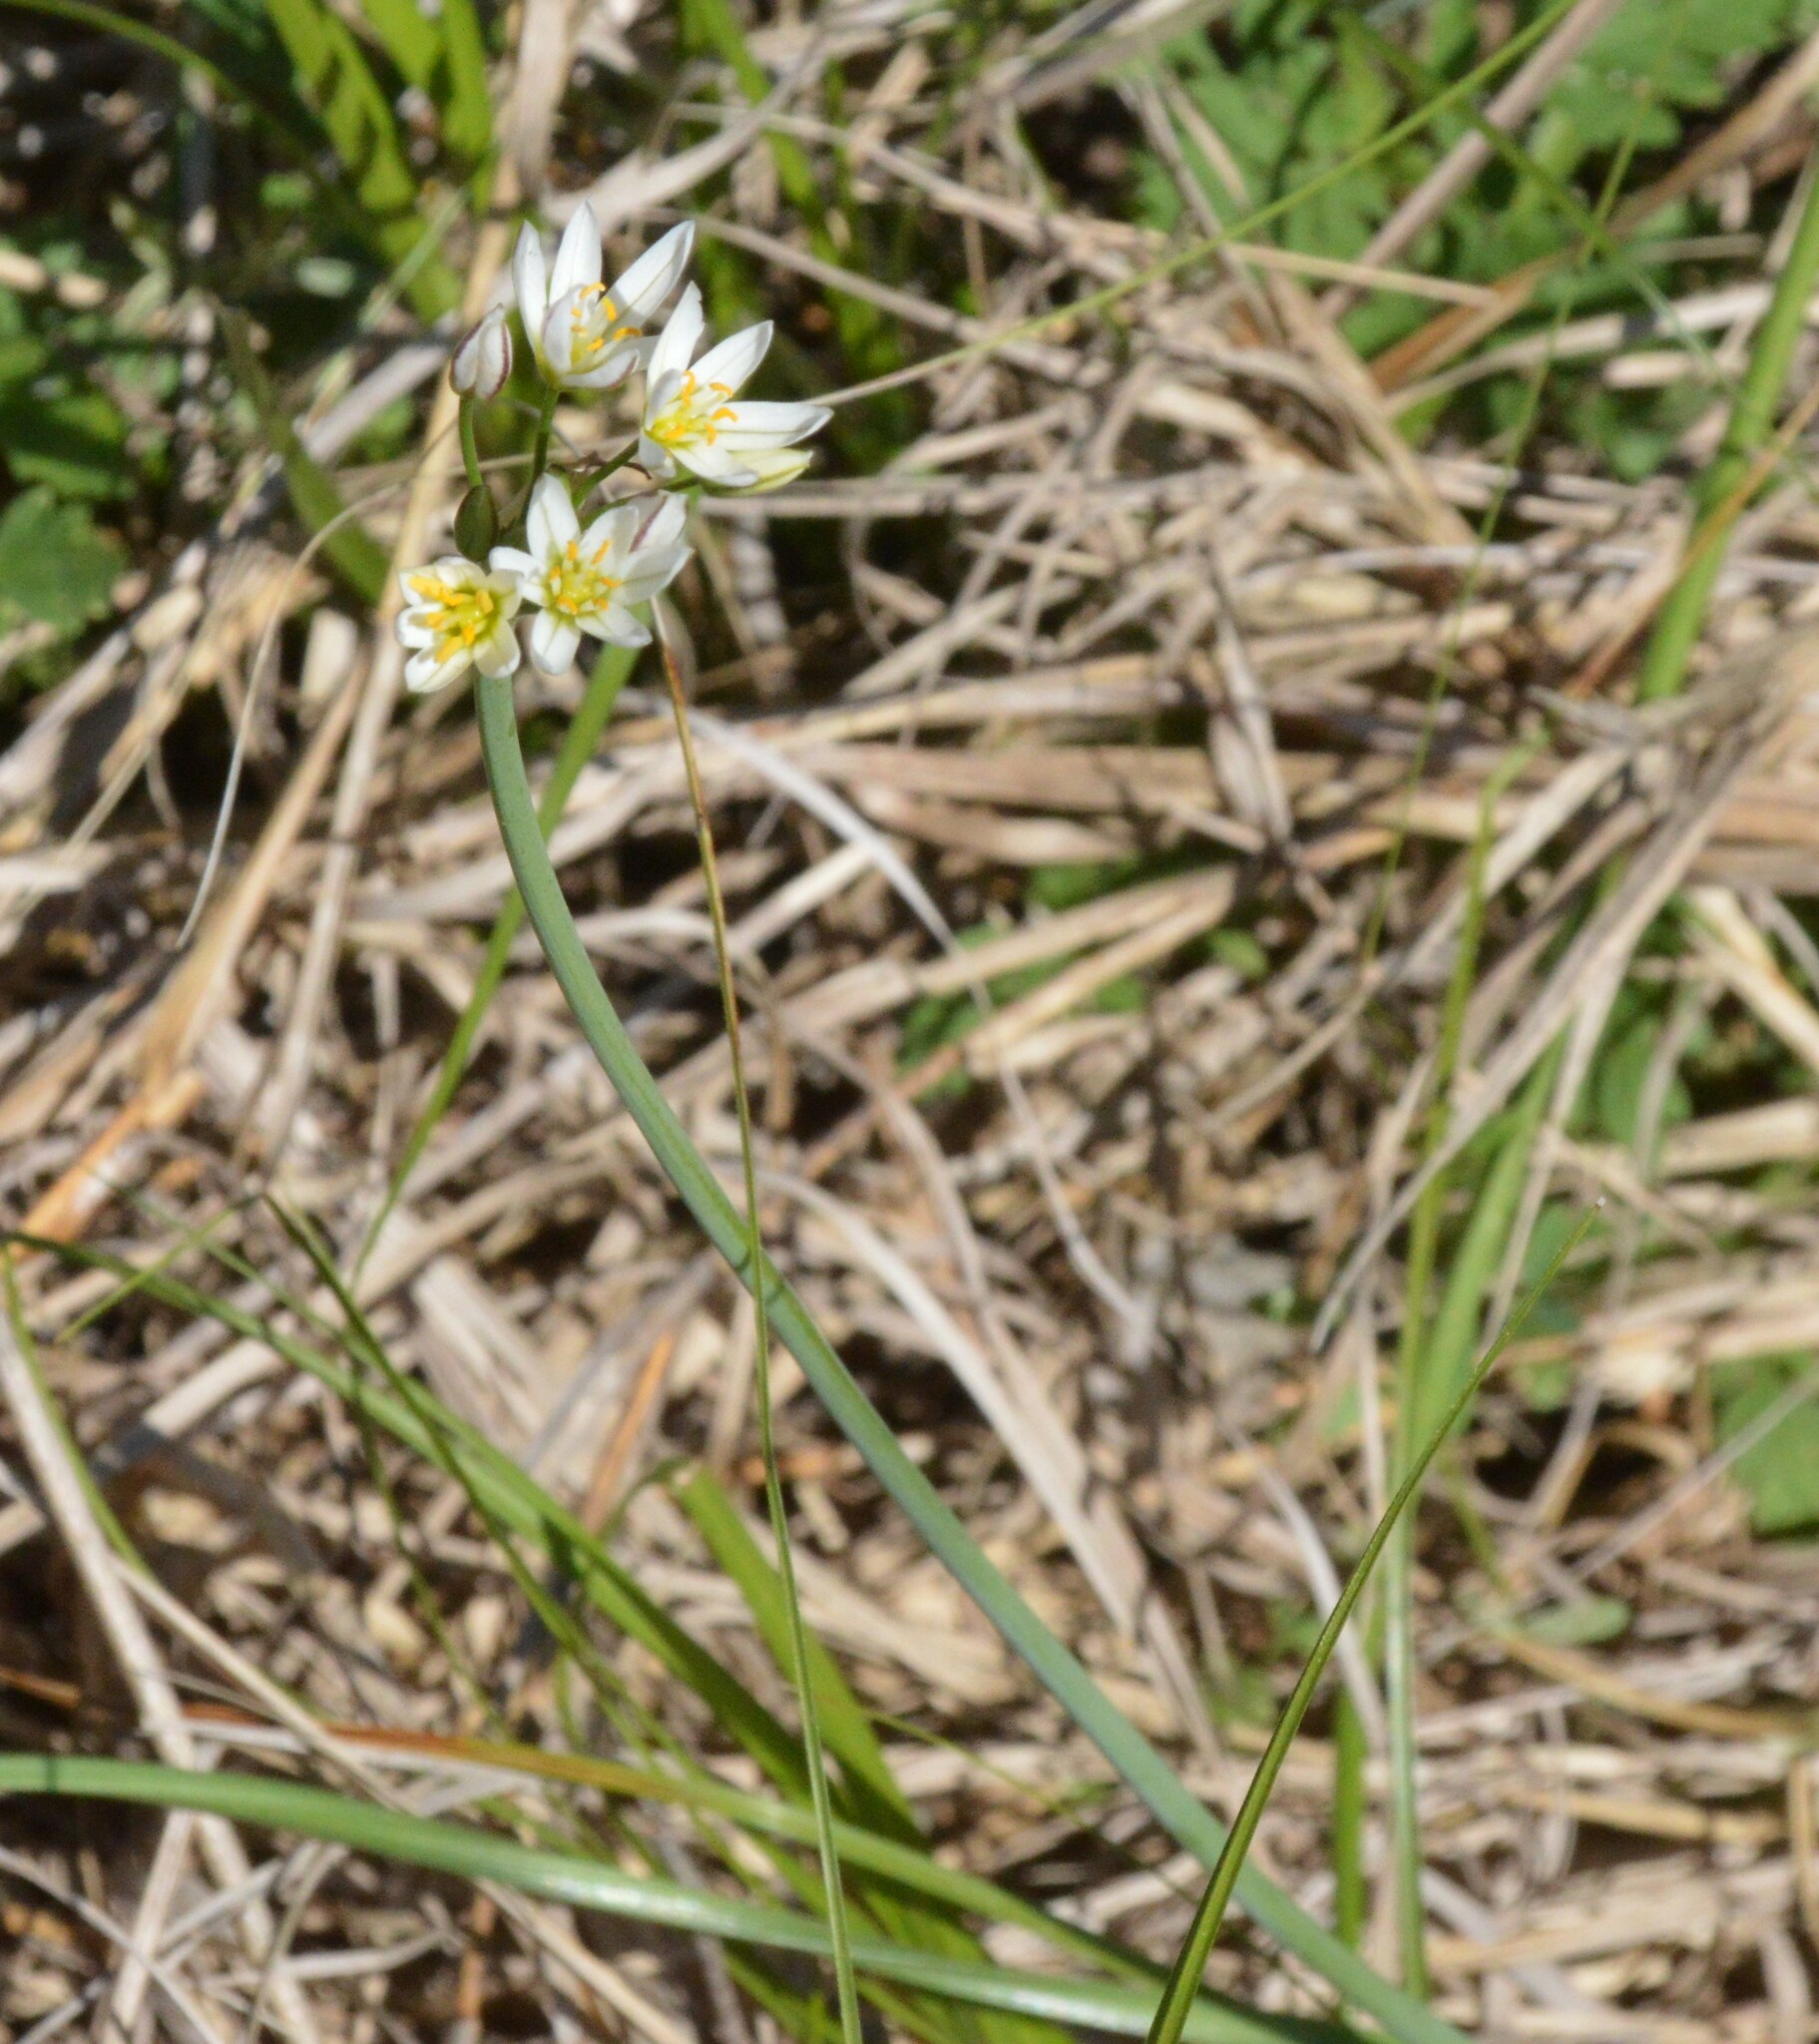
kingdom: Plantae
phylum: Tracheophyta
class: Liliopsida
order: Asparagales
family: Amaryllidaceae
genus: Nothoscordum
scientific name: Nothoscordum bivalve
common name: Crow-poison
